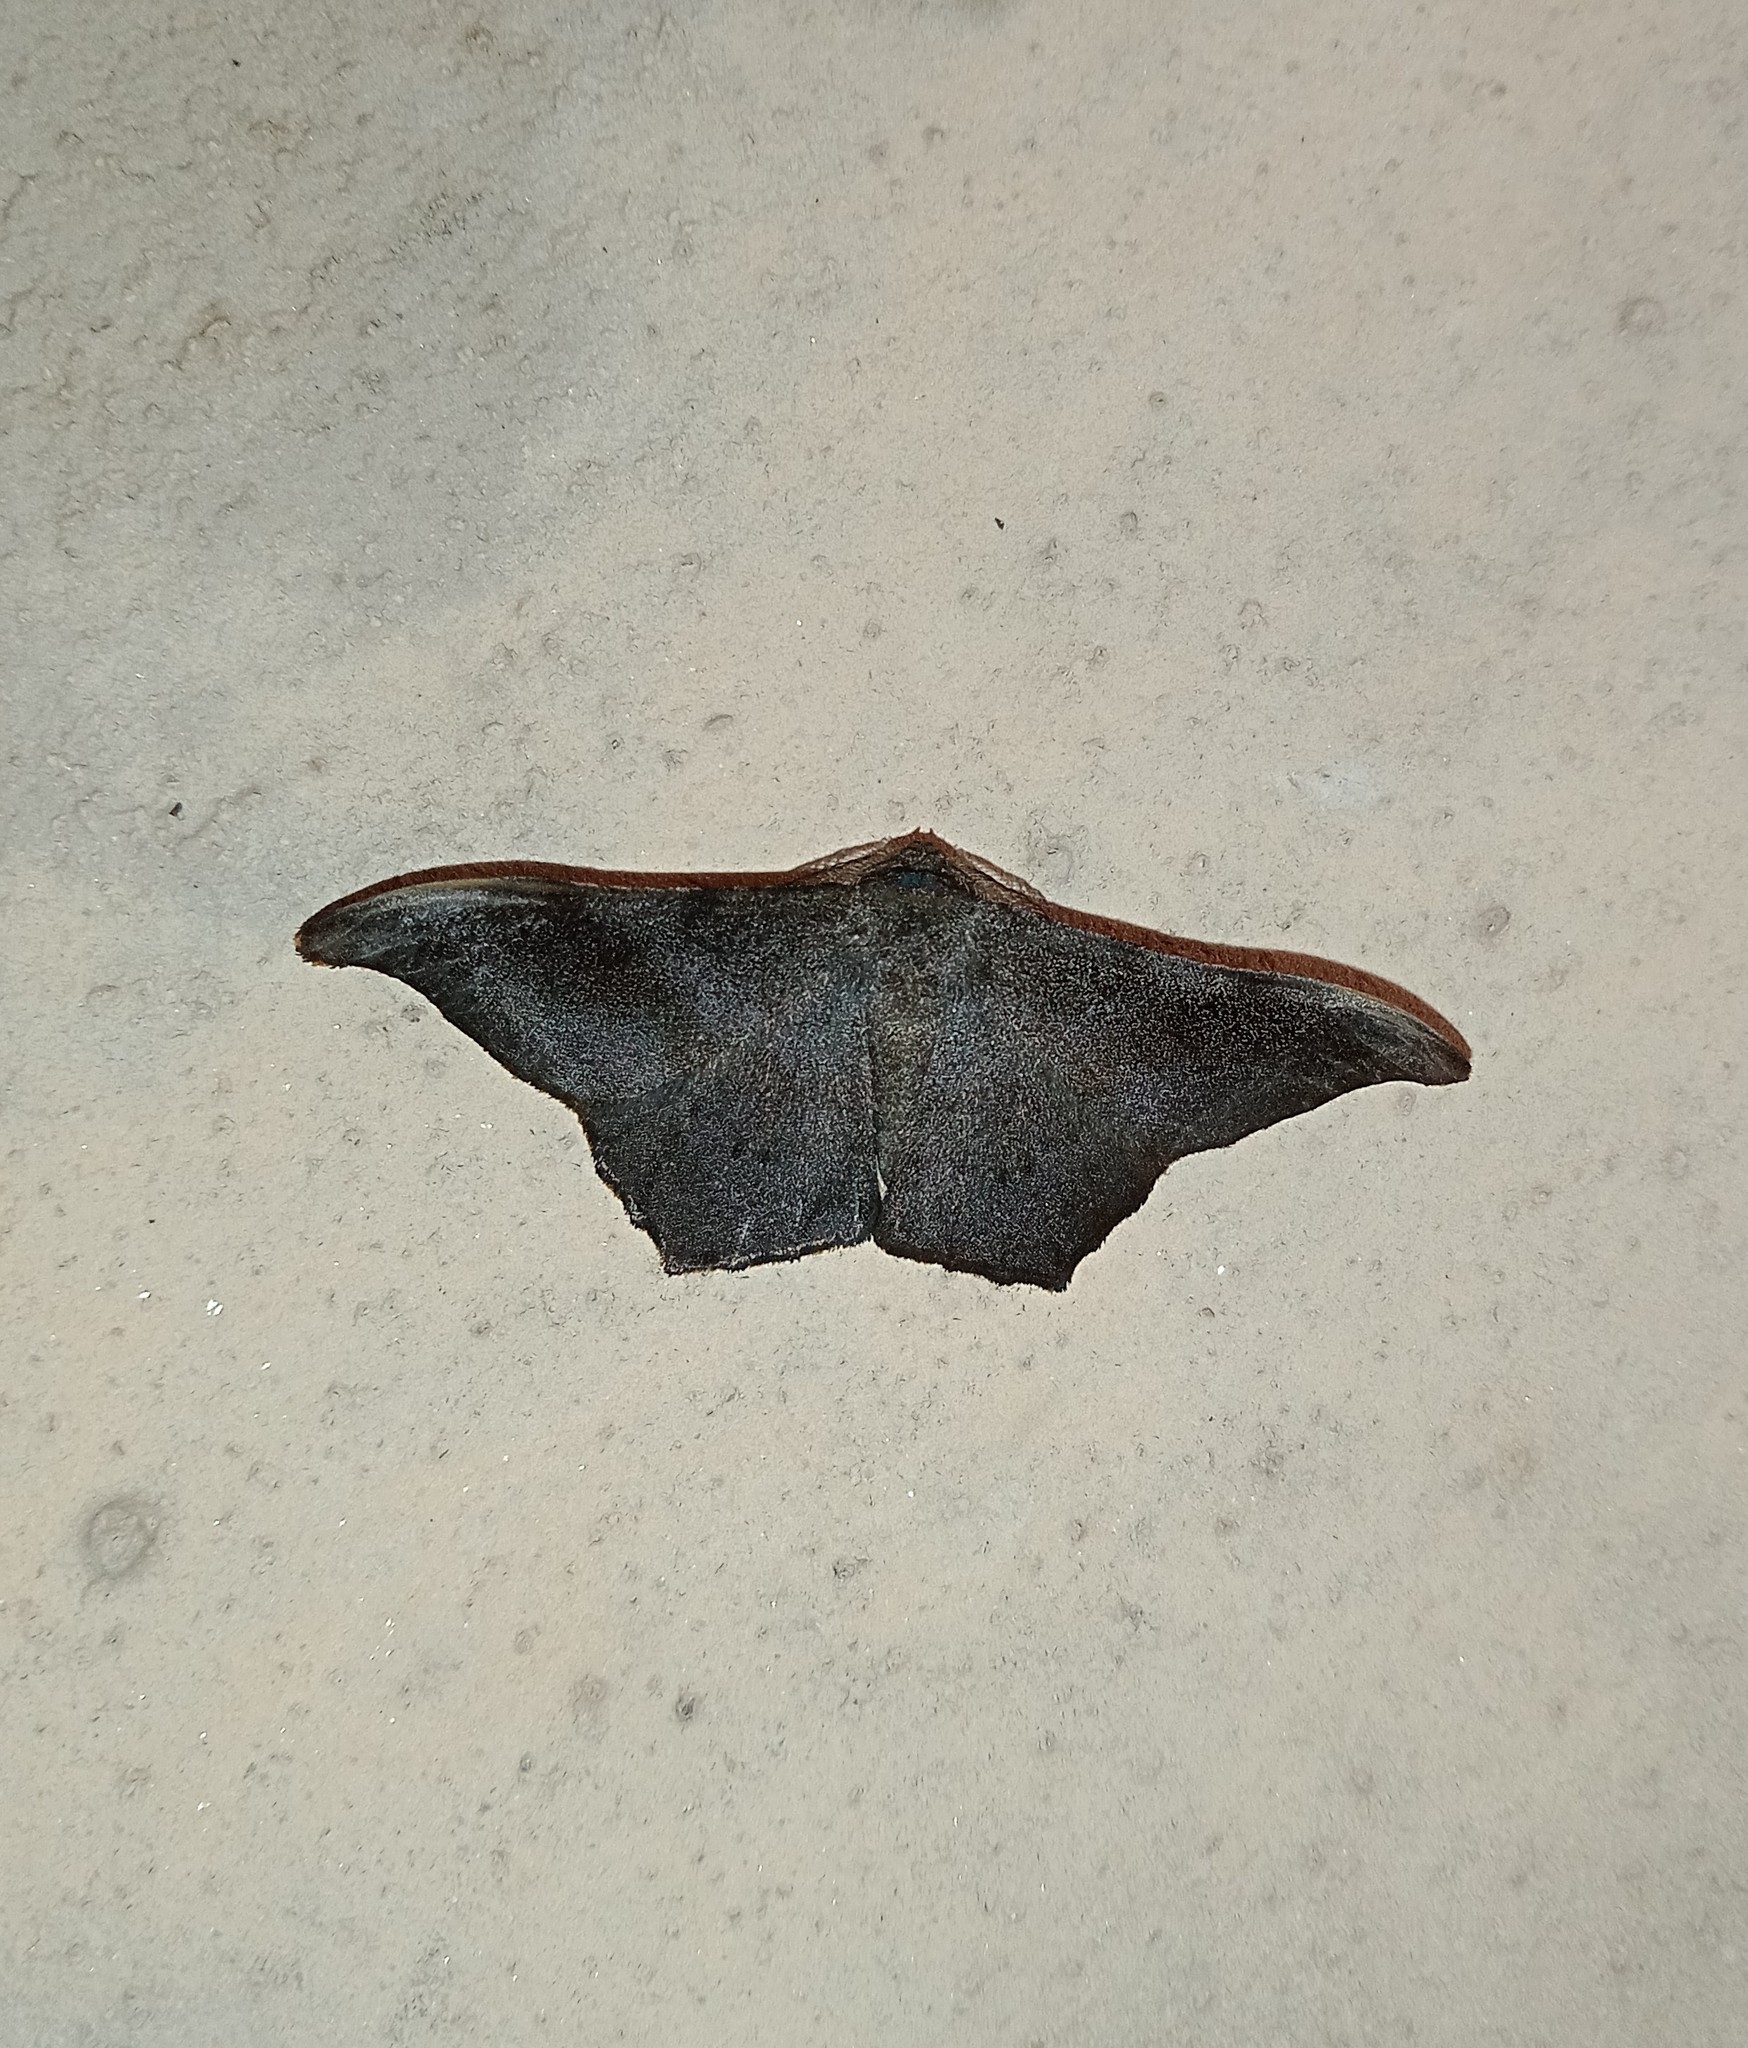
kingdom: Animalia
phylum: Arthropoda
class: Insecta
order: Lepidoptera
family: Geometridae
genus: Hyposidra
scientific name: Hyposidra talaca
